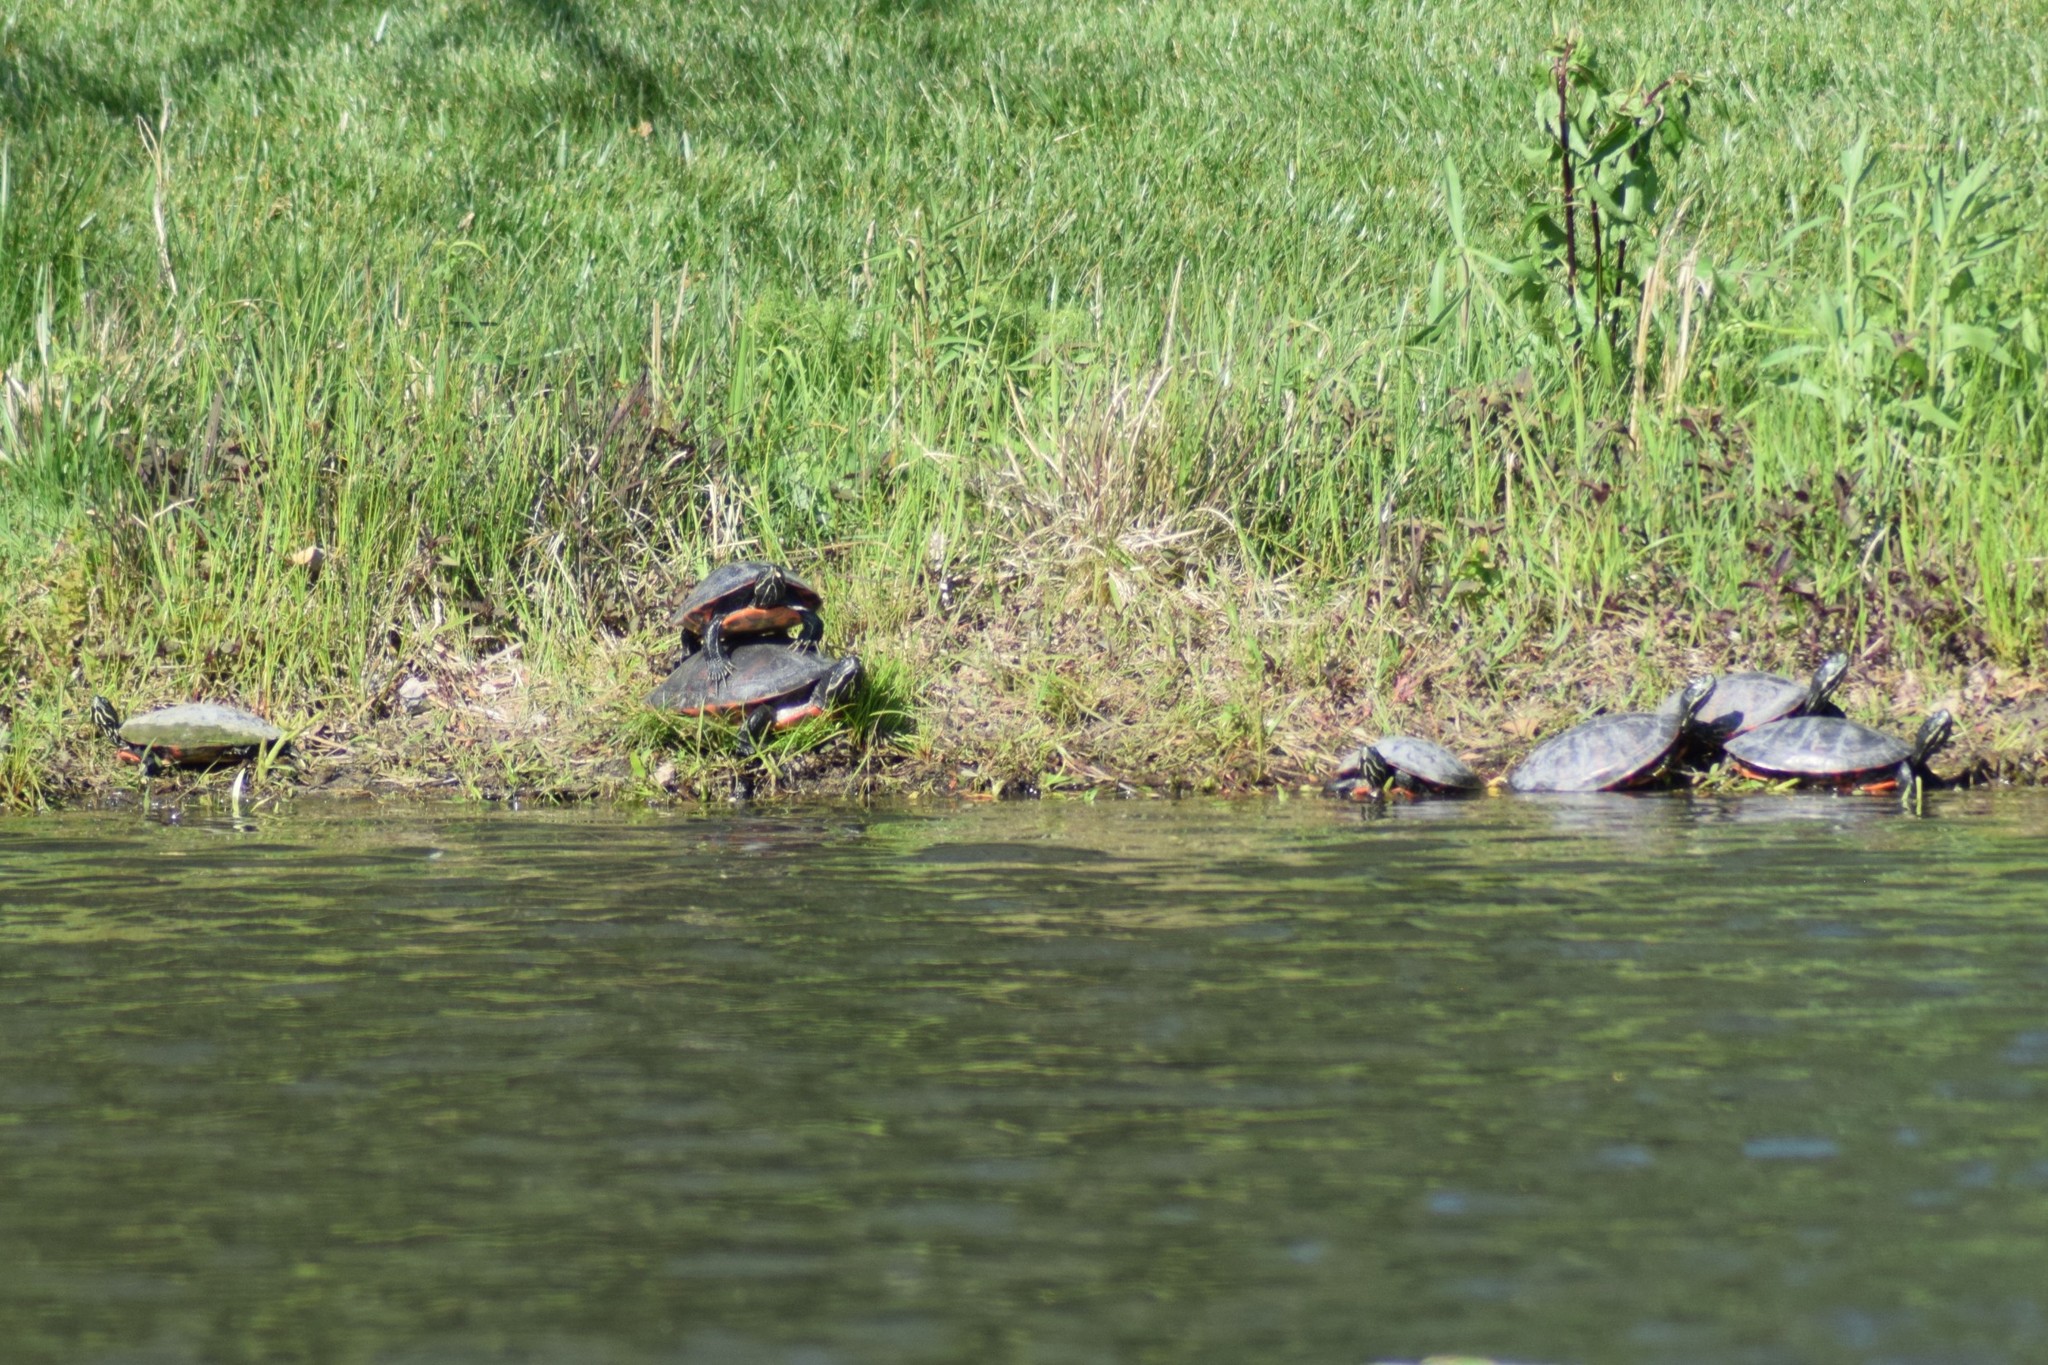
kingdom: Animalia
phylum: Chordata
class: Testudines
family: Emydidae
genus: Pseudemys
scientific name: Pseudemys rubriventris
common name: American red-bellied turtle
